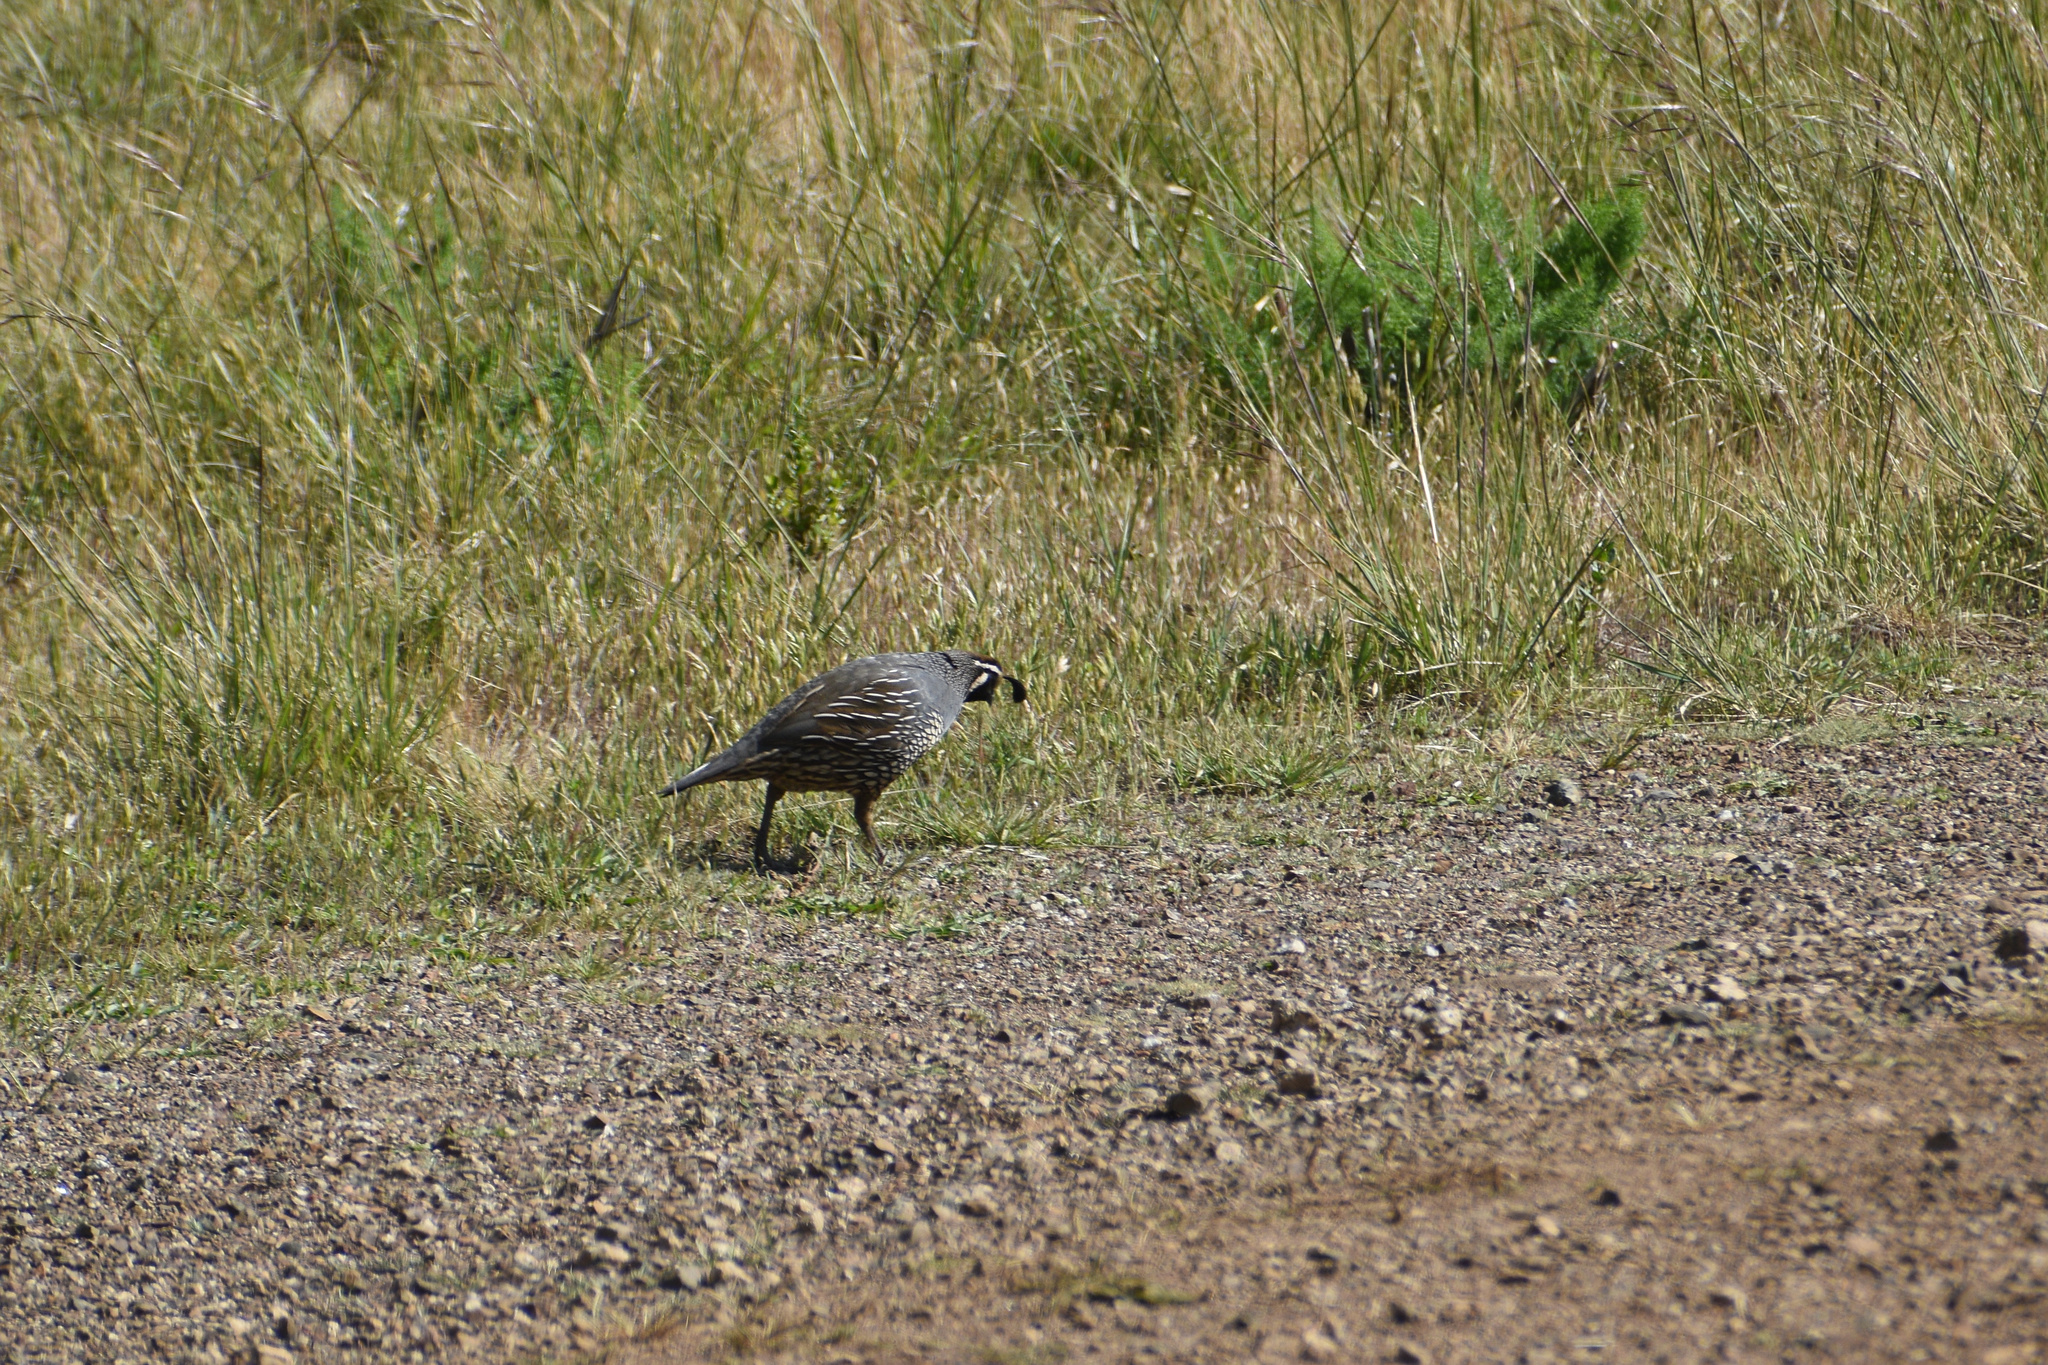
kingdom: Animalia
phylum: Chordata
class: Aves
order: Galliformes
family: Odontophoridae
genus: Callipepla
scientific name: Callipepla californica
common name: California quail
